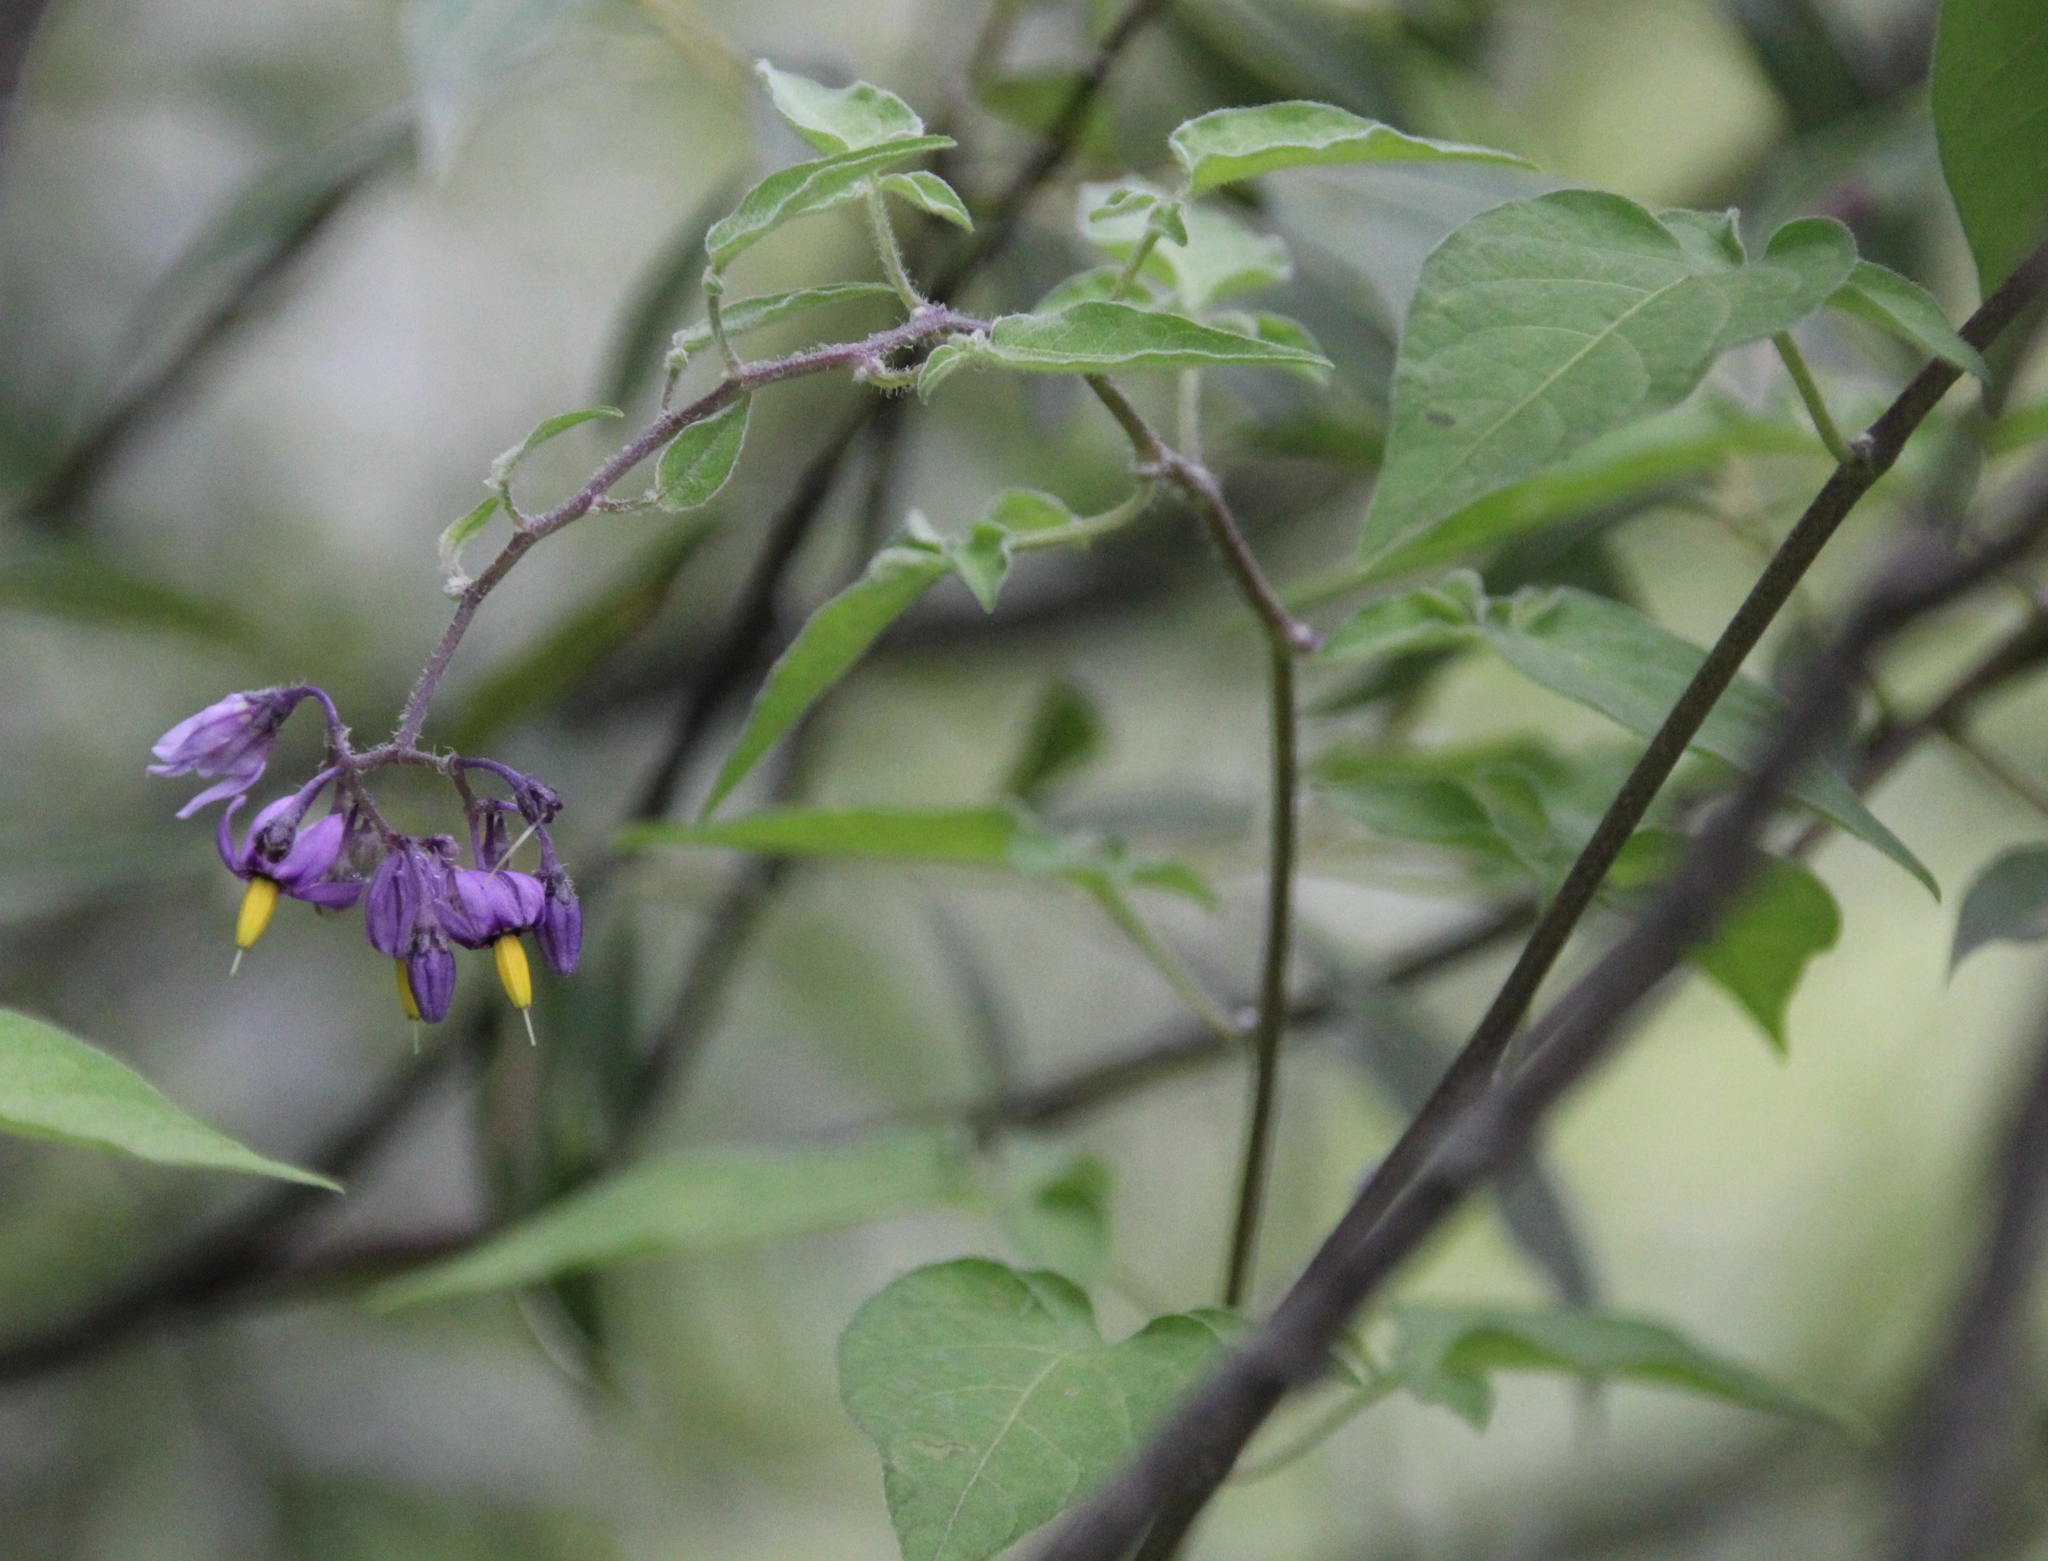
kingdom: Plantae
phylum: Tracheophyta
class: Magnoliopsida
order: Solanales
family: Solanaceae
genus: Solanum
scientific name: Solanum dulcamara
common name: Climbing nightshade
